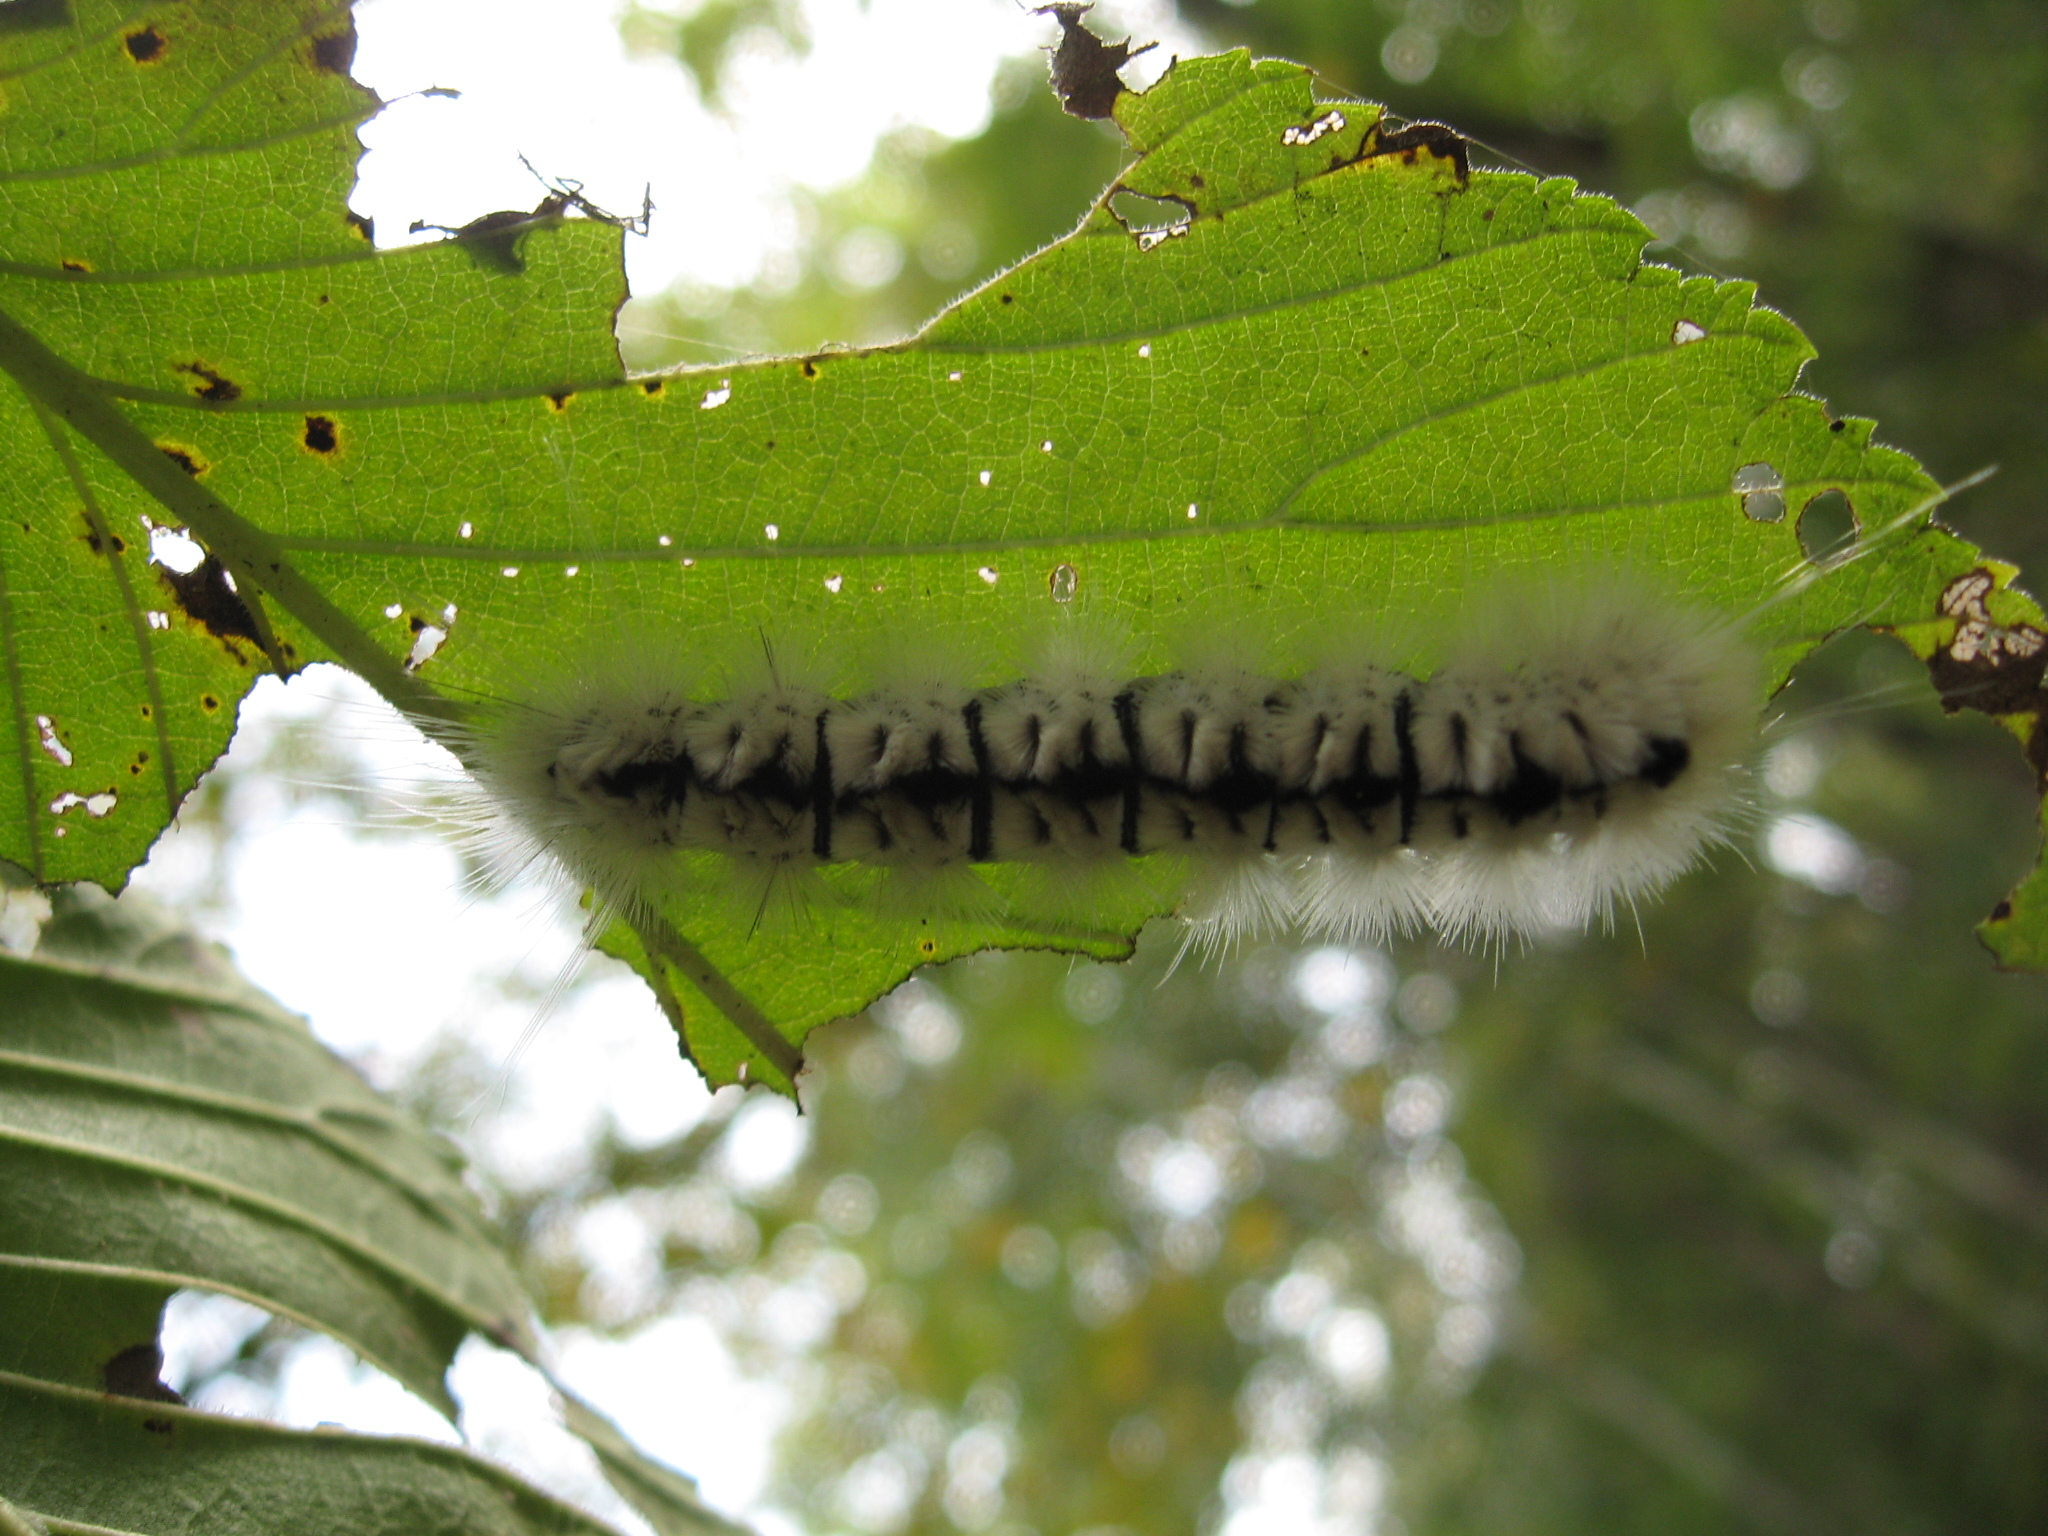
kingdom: Animalia
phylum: Arthropoda
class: Insecta
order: Lepidoptera
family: Erebidae
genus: Lophocampa
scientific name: Lophocampa caryae
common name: Hickory tussock moth
